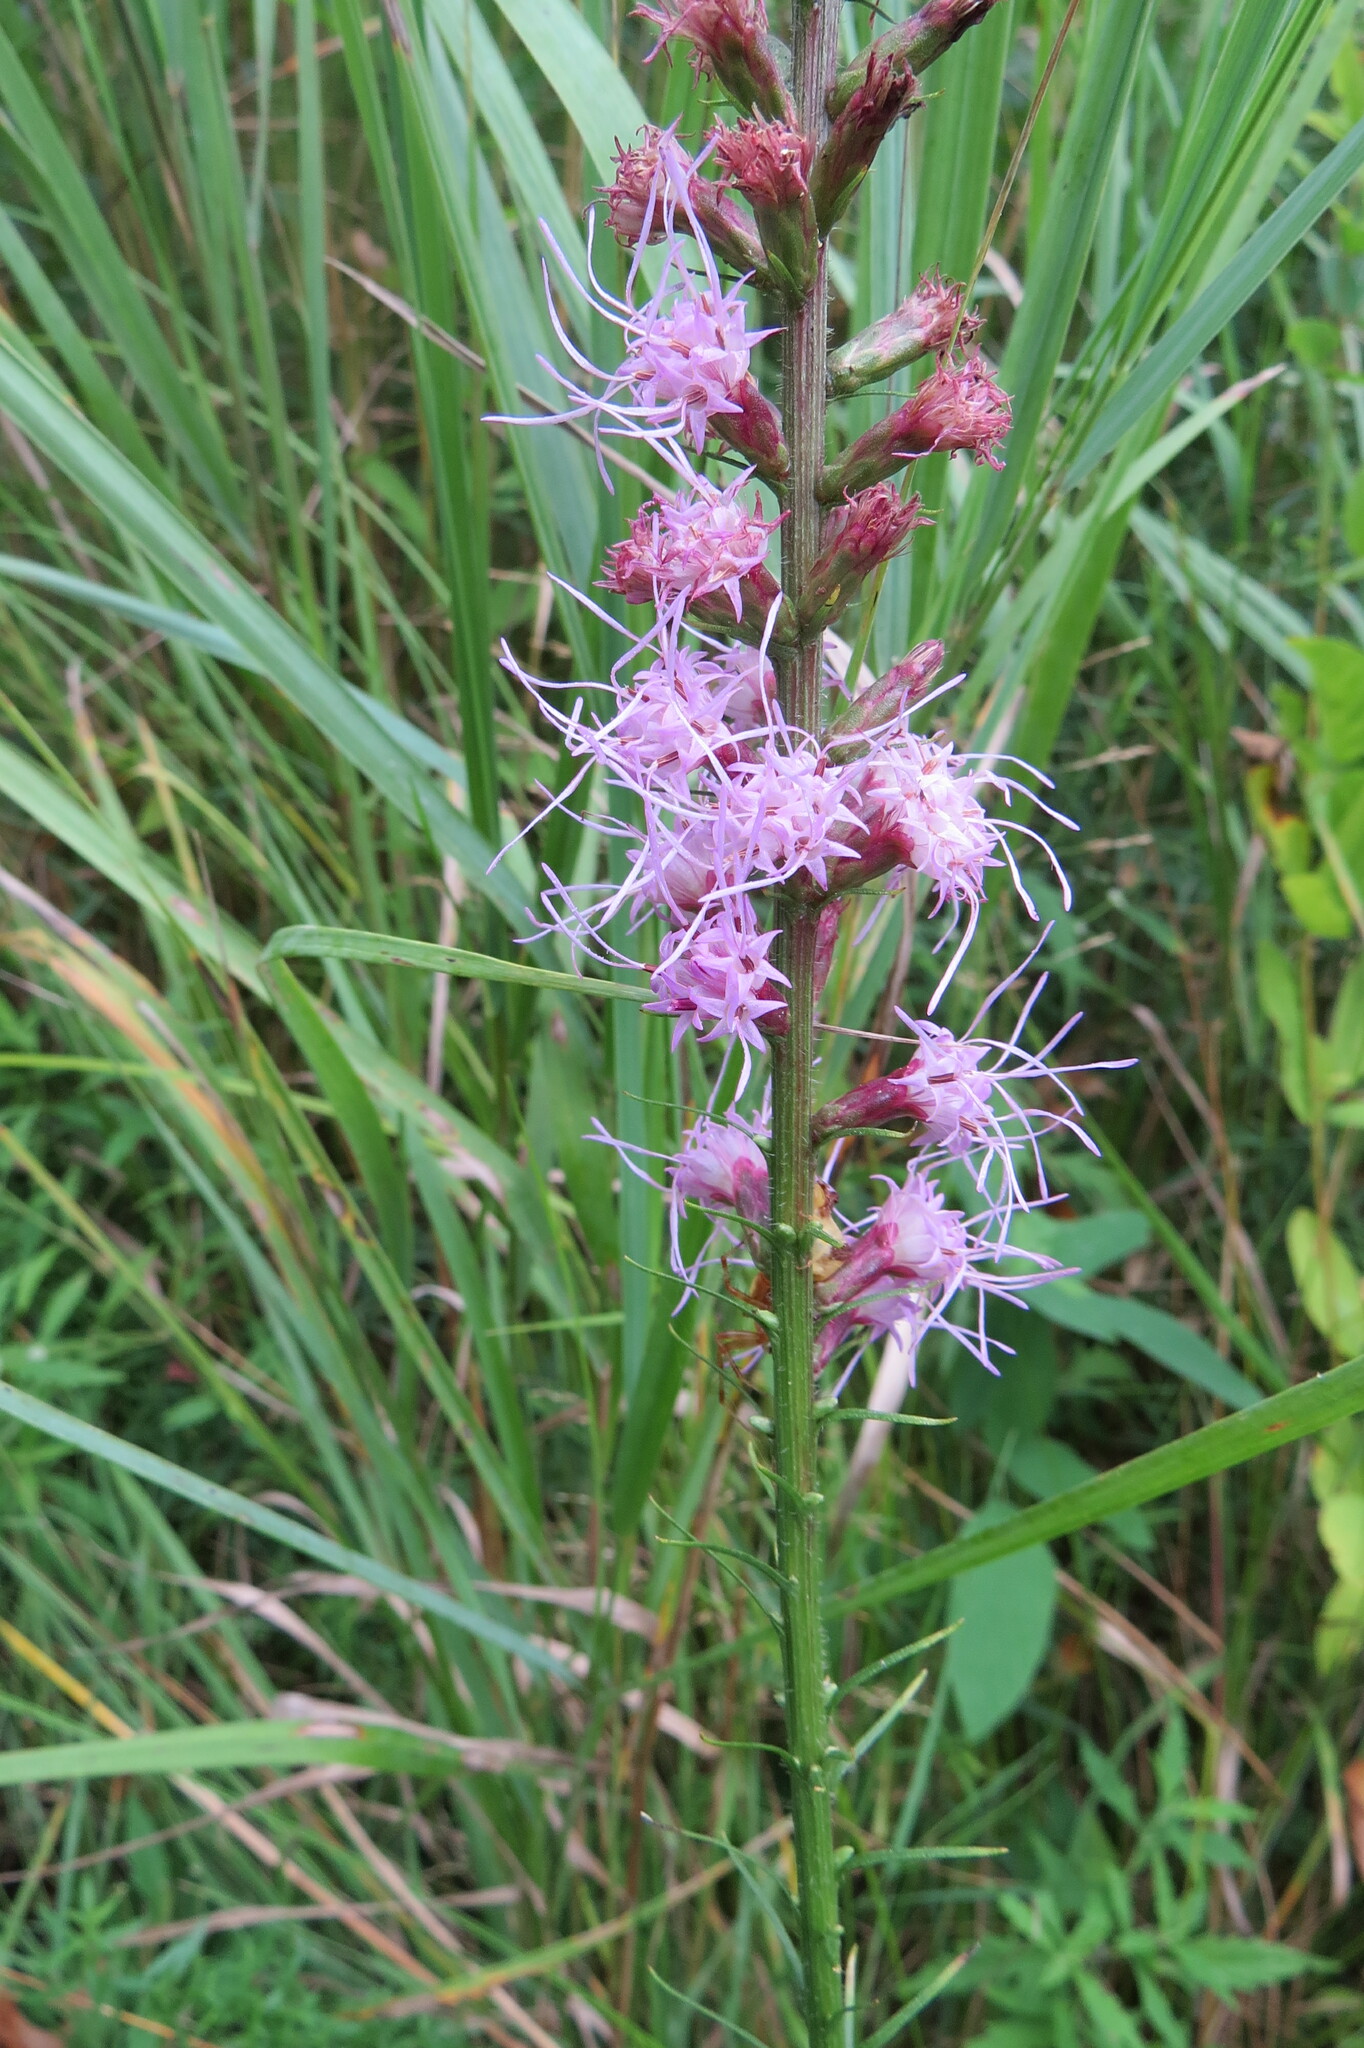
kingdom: Plantae
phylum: Tracheophyta
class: Magnoliopsida
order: Asterales
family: Asteraceae
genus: Liatris
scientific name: Liatris spicata
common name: Florist gayfeather
